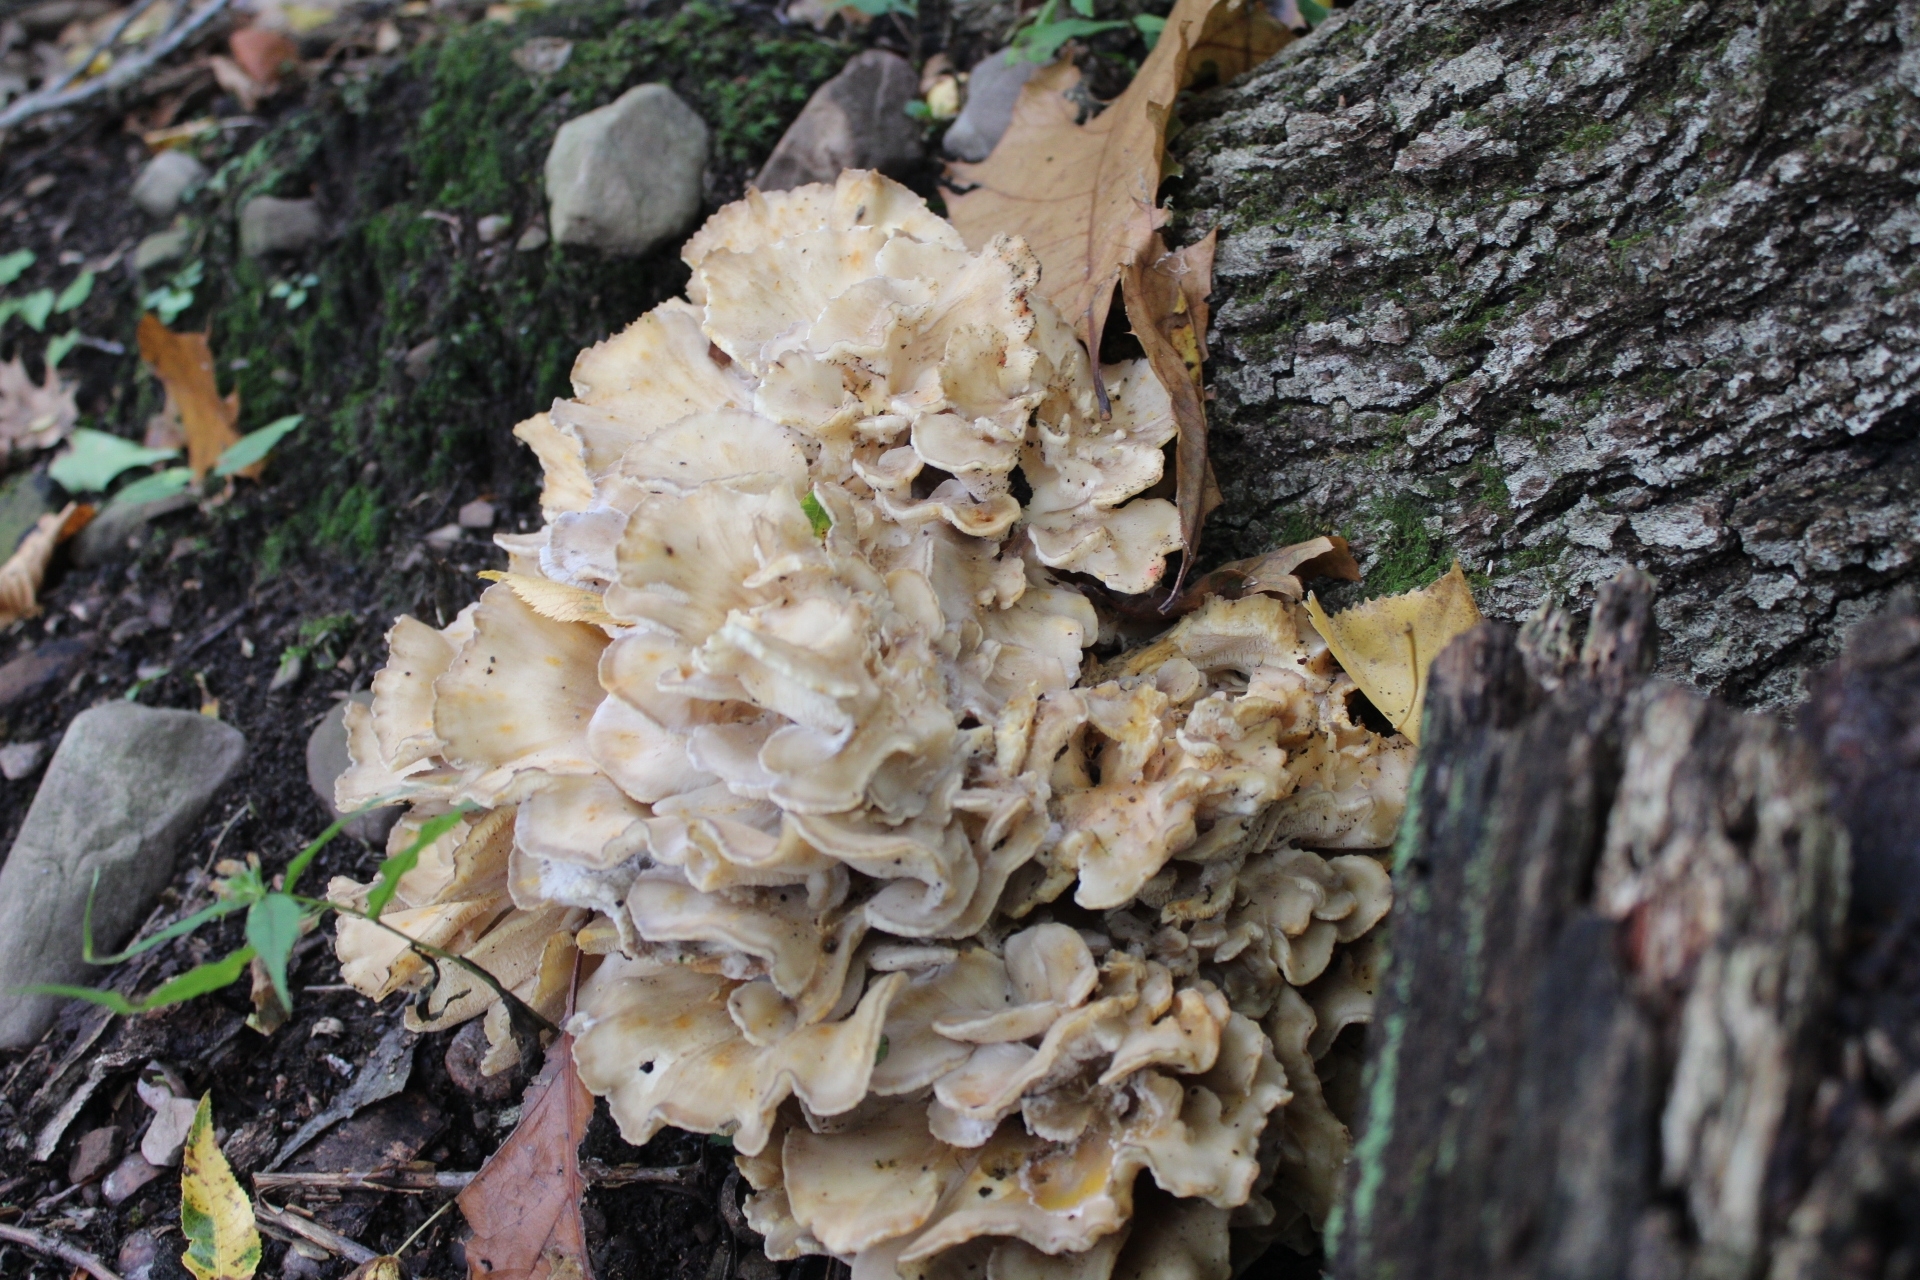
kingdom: Fungi
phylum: Basidiomycota
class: Agaricomycetes
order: Polyporales
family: Grifolaceae
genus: Grifola
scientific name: Grifola frondosa
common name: Hen of the woods
